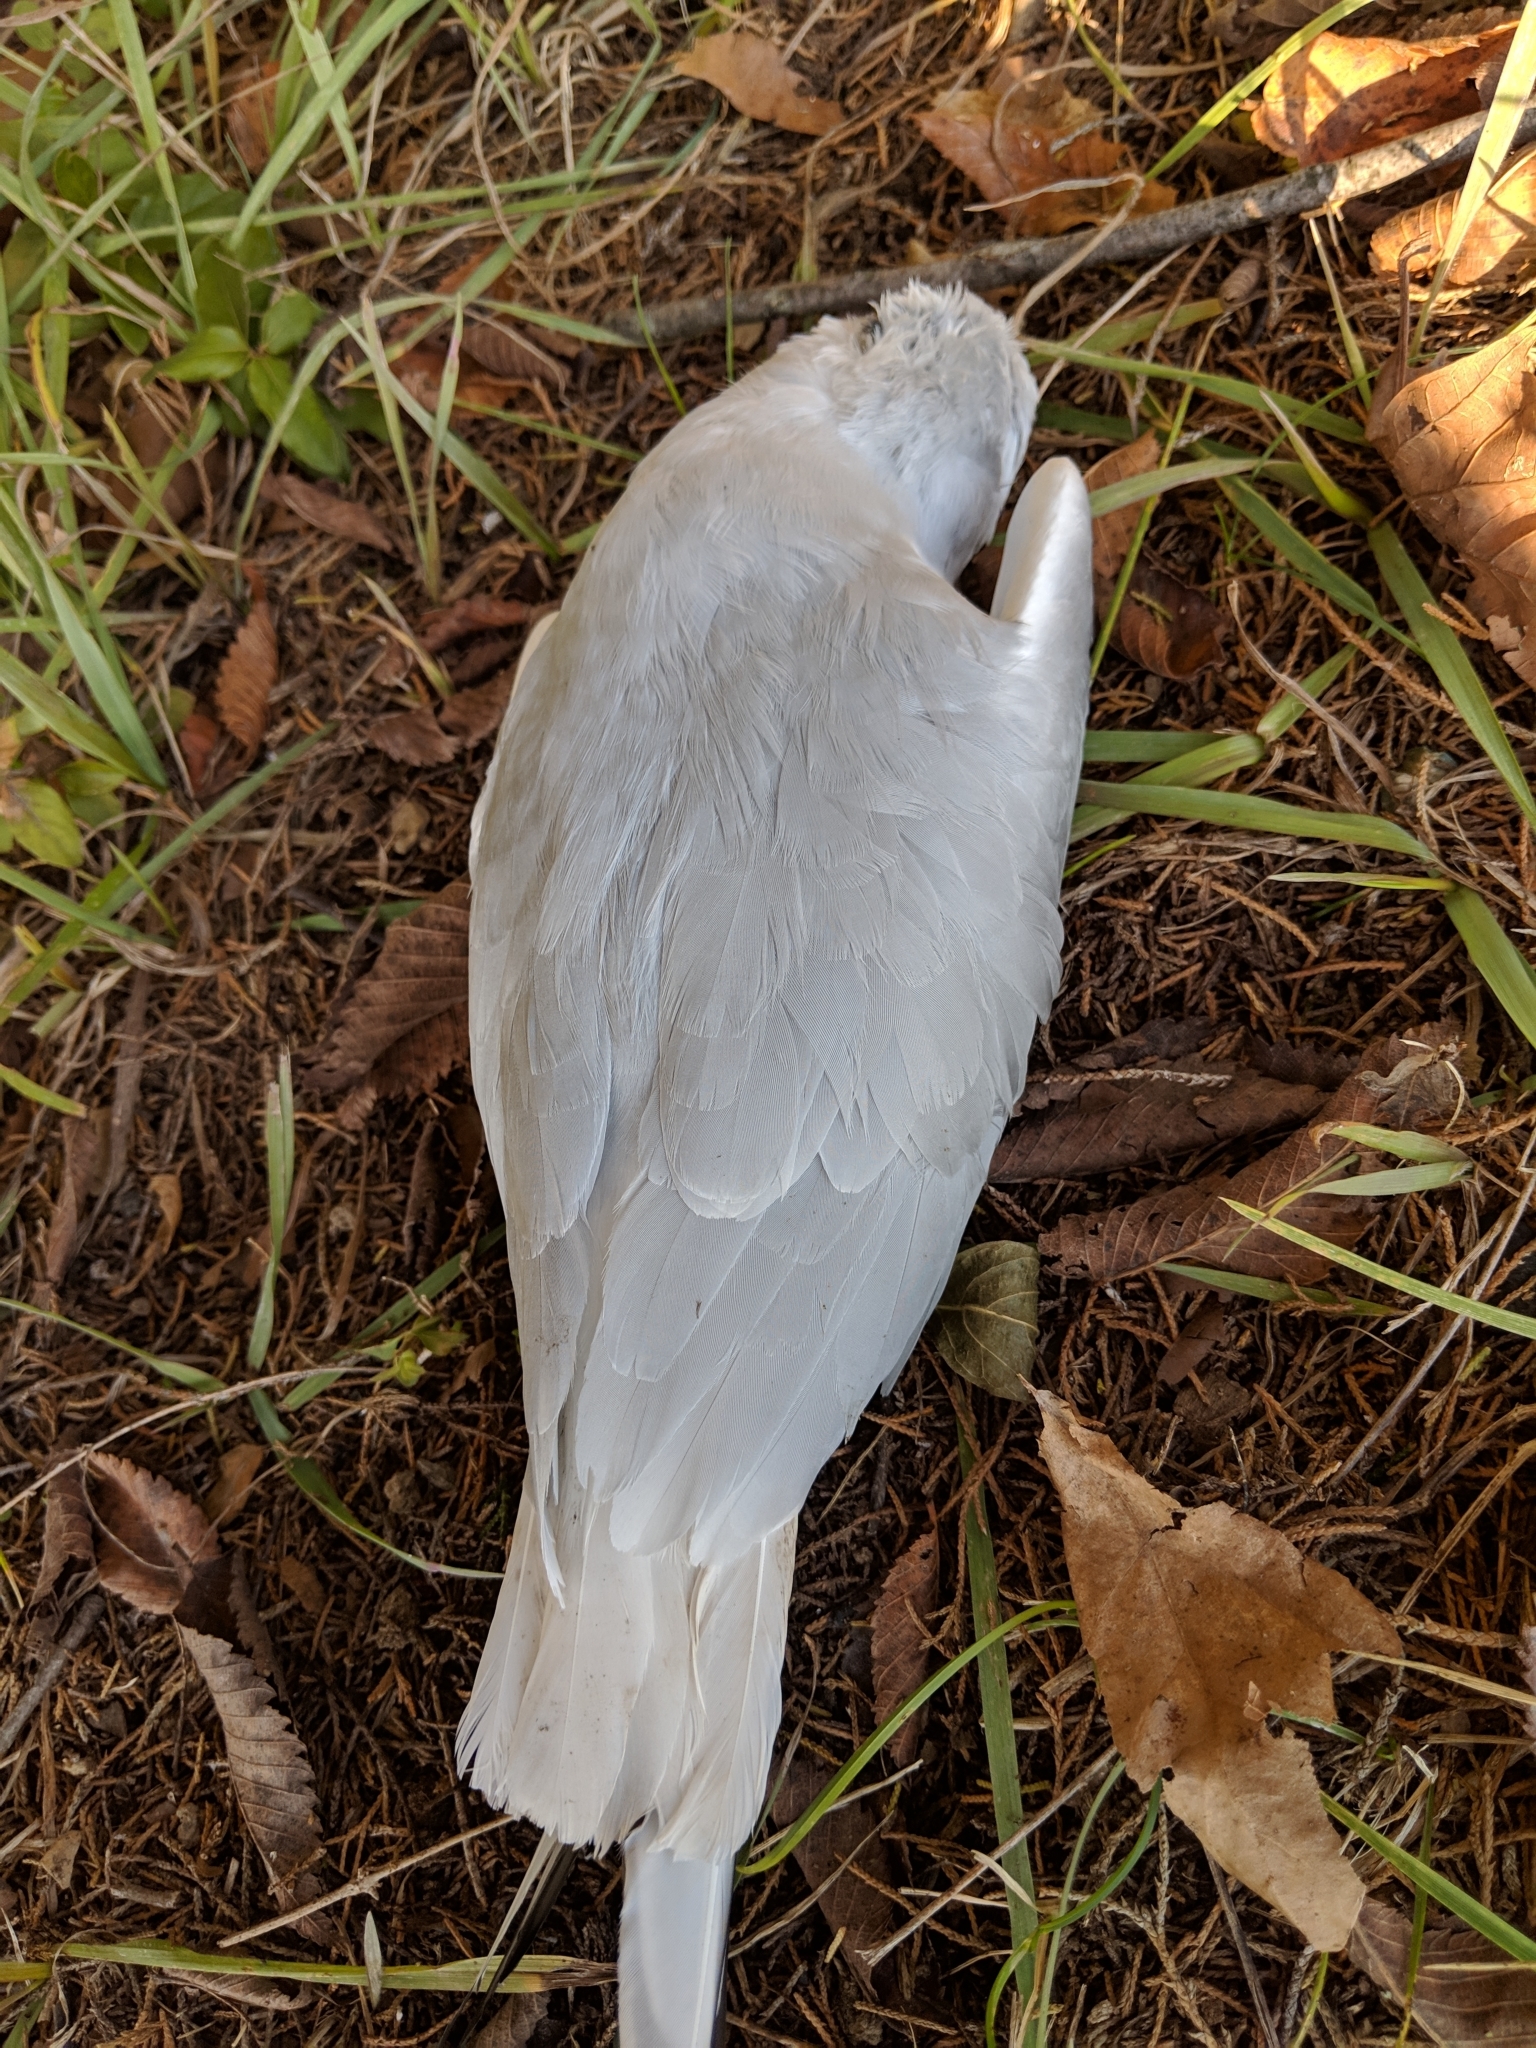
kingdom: Animalia
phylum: Chordata
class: Aves
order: Charadriiformes
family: Laridae
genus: Chroicocephalus
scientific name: Chroicocephalus philadelphia
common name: Bonaparte's gull
